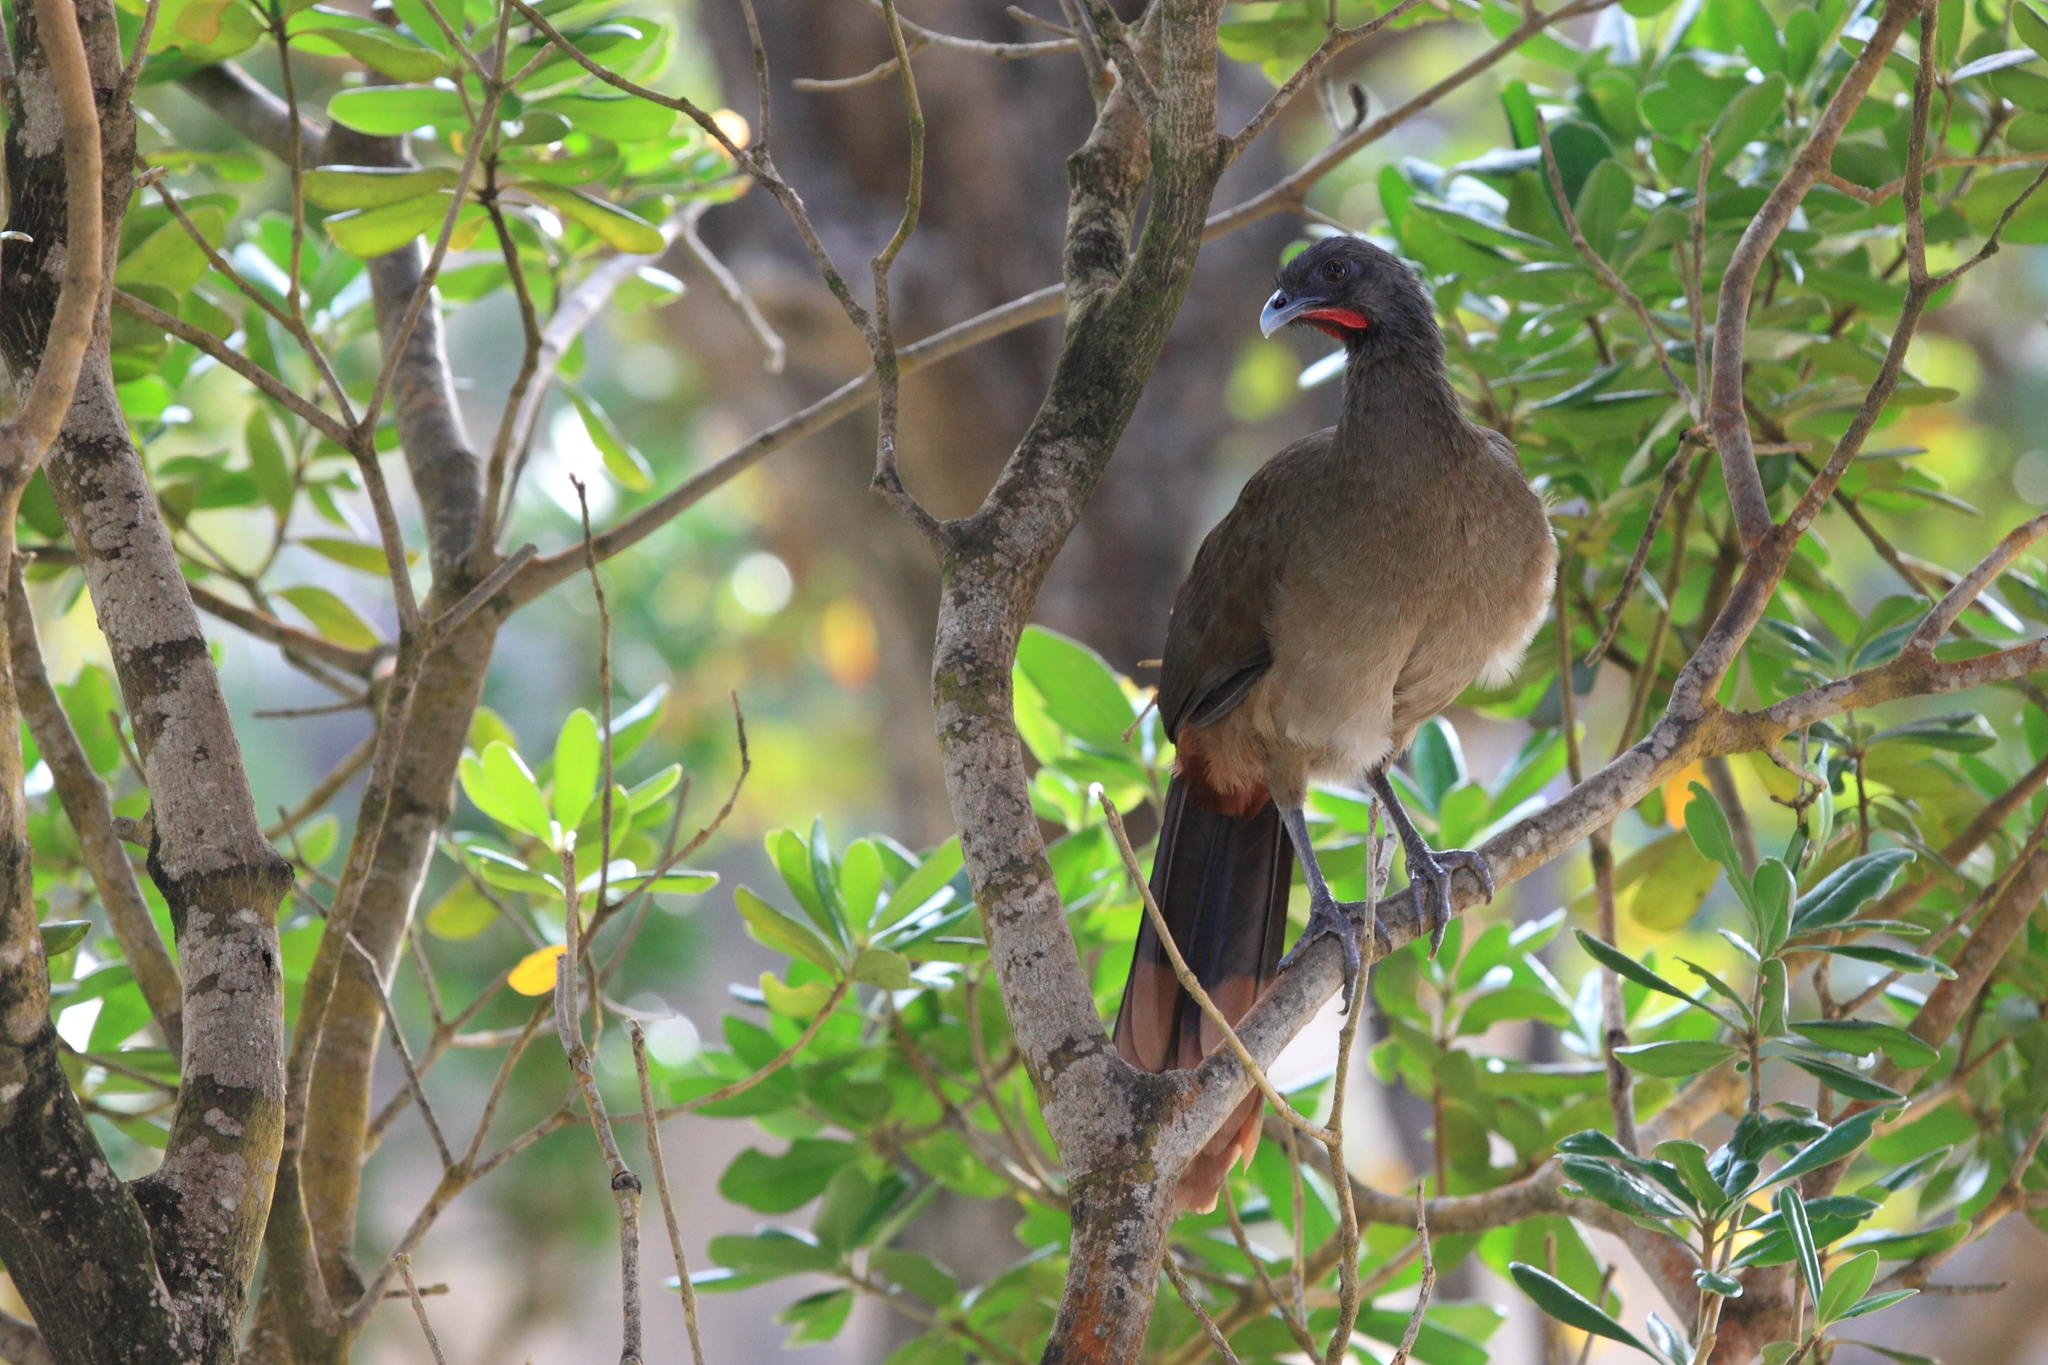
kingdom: Animalia
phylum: Chordata
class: Aves
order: Galliformes
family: Cracidae
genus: Ortalis
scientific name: Ortalis ruficauda
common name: Rufous-vented chachalaca
